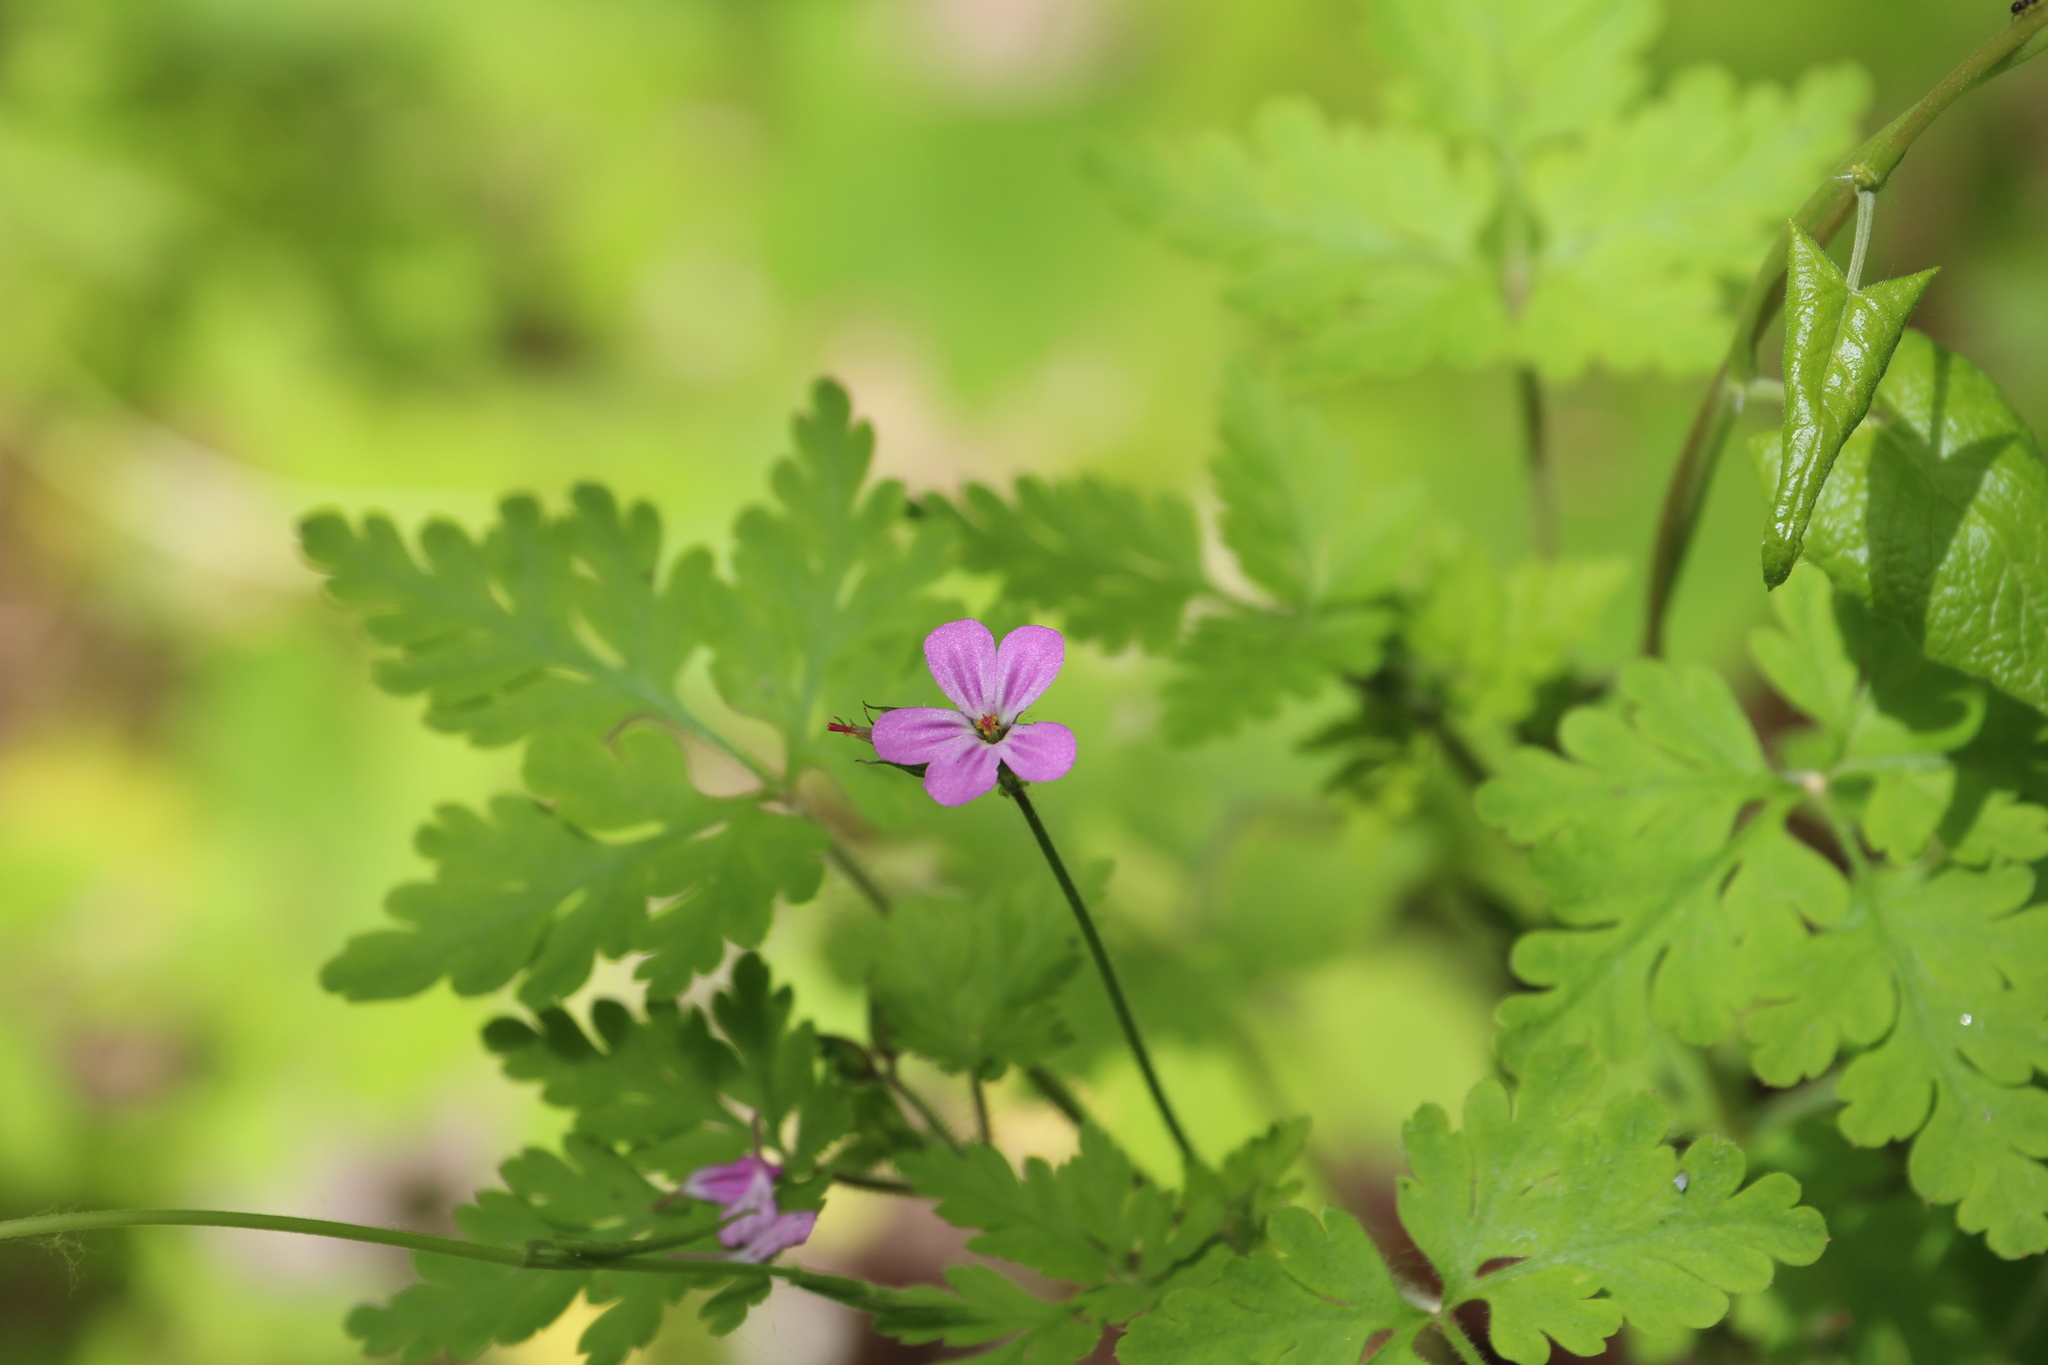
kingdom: Plantae
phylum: Tracheophyta
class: Magnoliopsida
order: Geraniales
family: Geraniaceae
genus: Geranium
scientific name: Geranium robertianum
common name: Herb-robert
